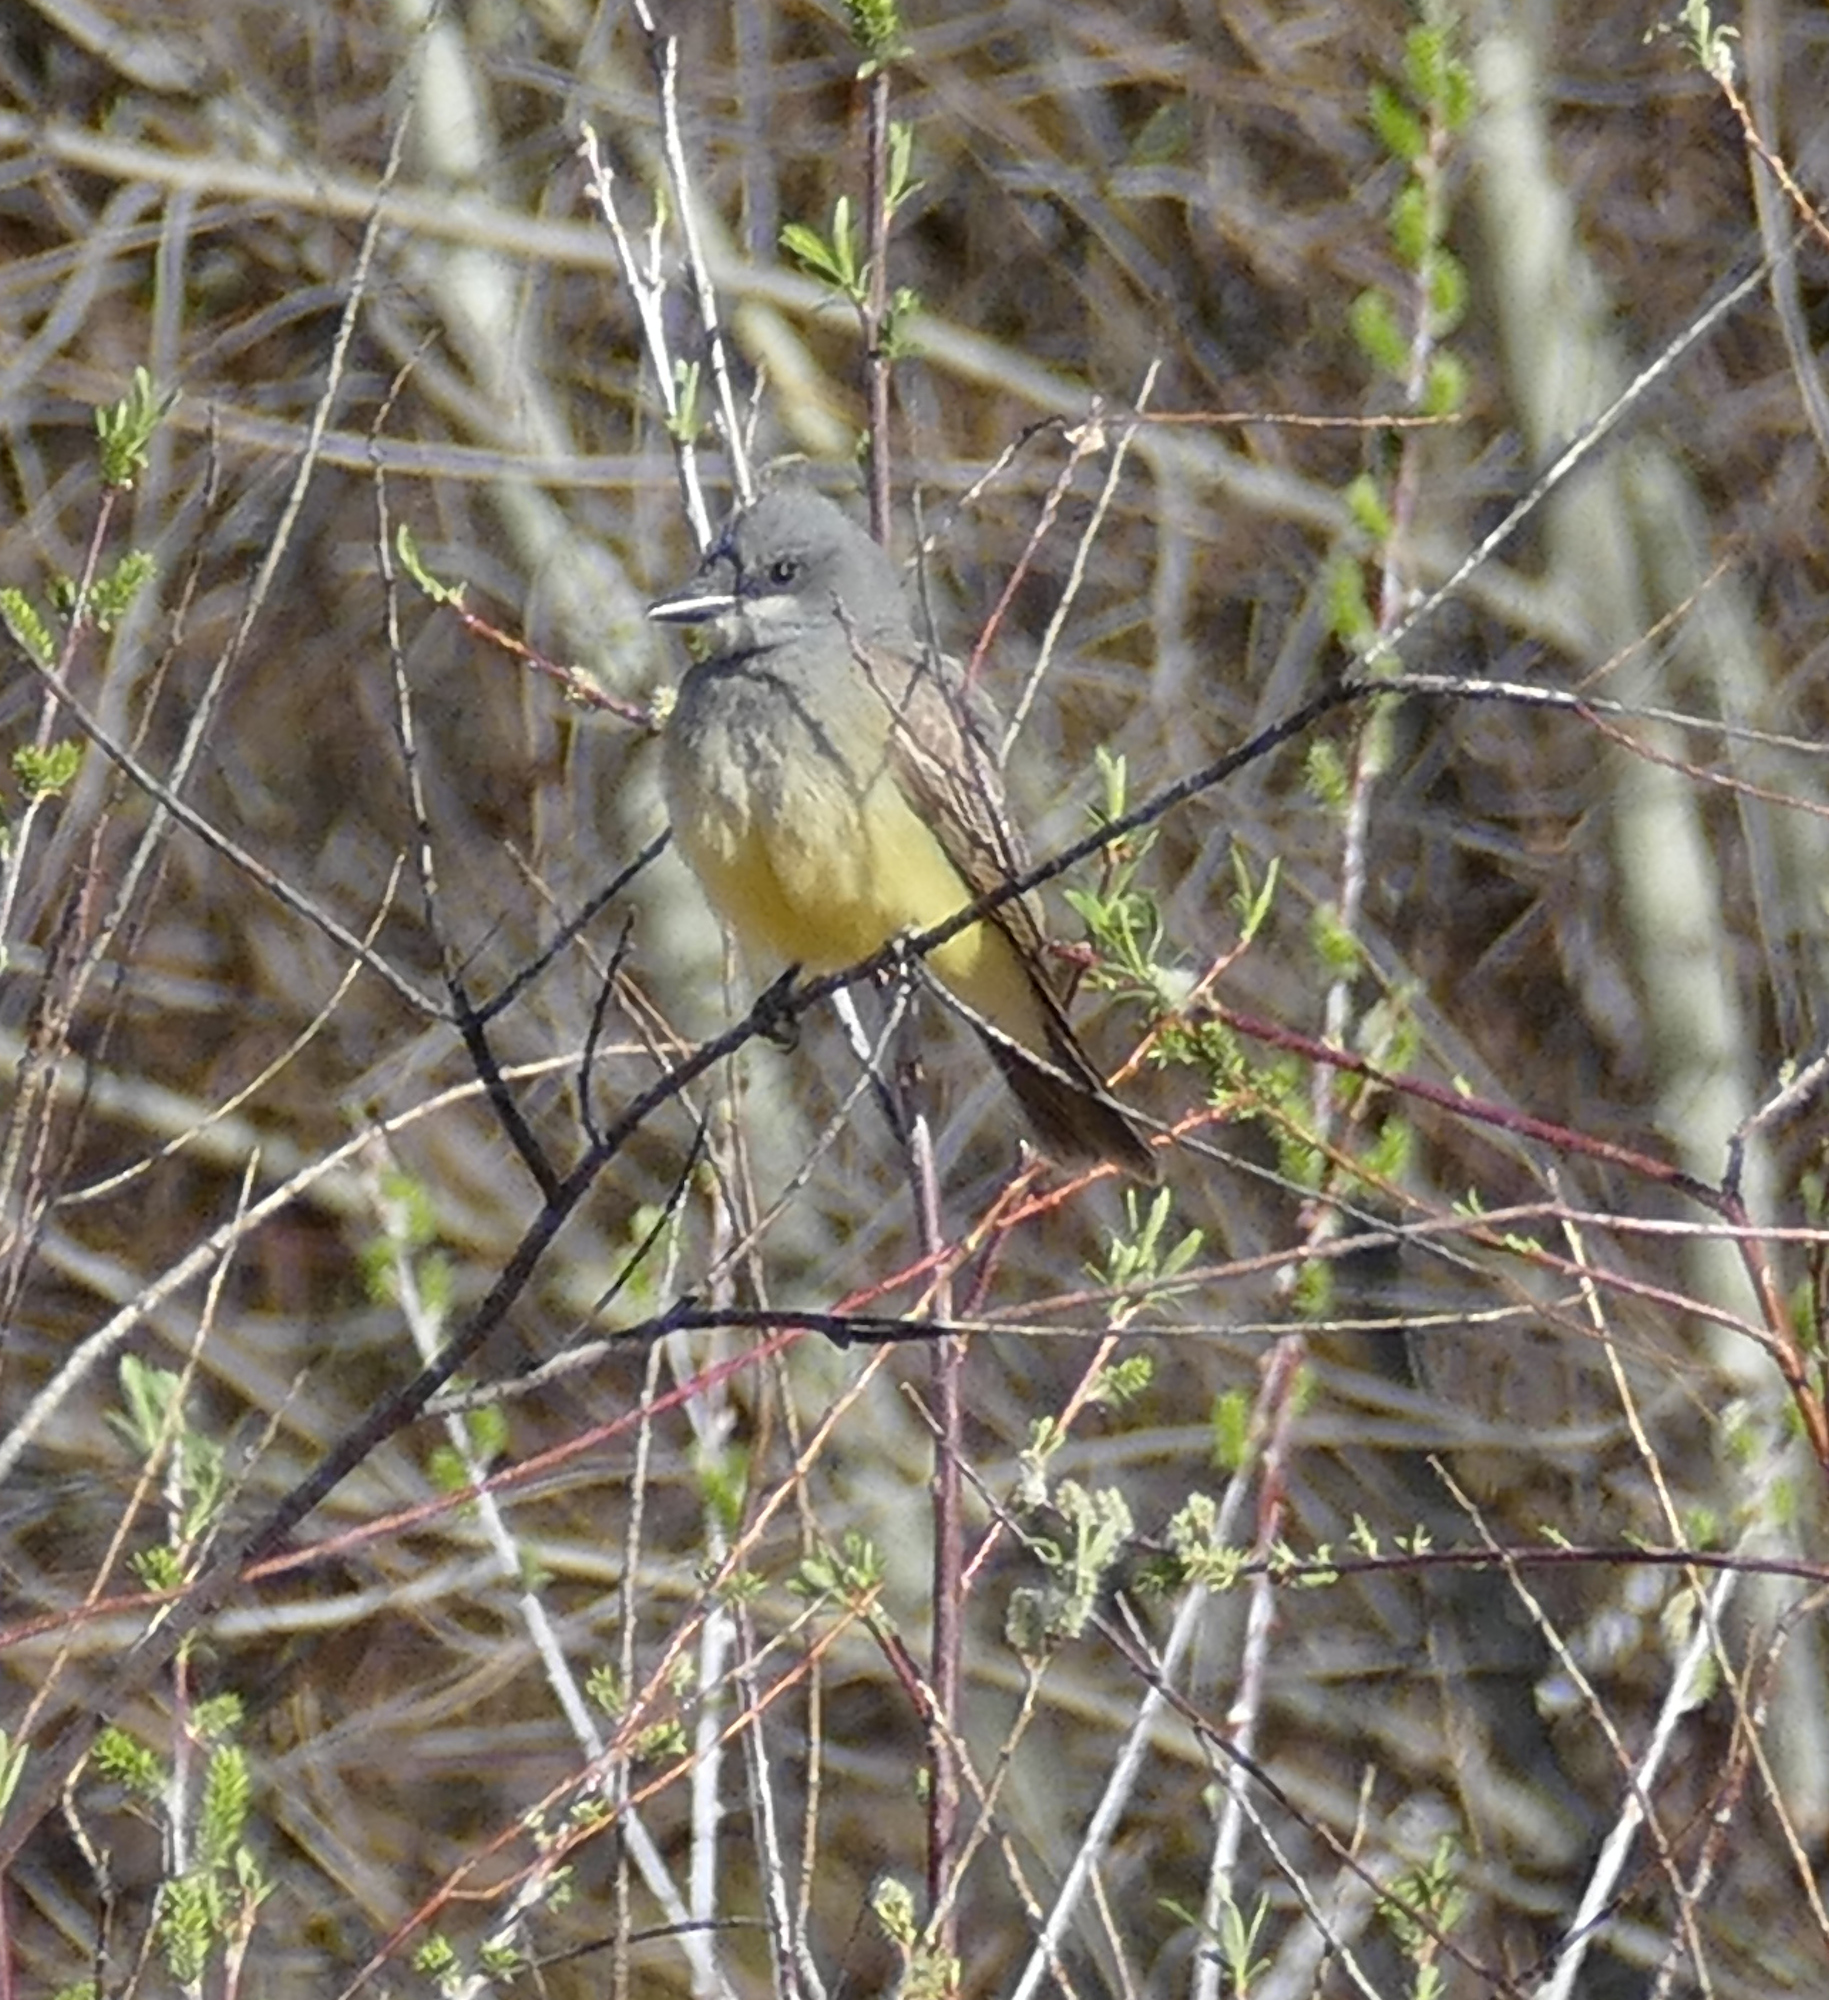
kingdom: Animalia
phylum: Chordata
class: Aves
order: Passeriformes
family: Tyrannidae
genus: Tyrannus
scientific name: Tyrannus vociferans
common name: Cassin's kingbird
